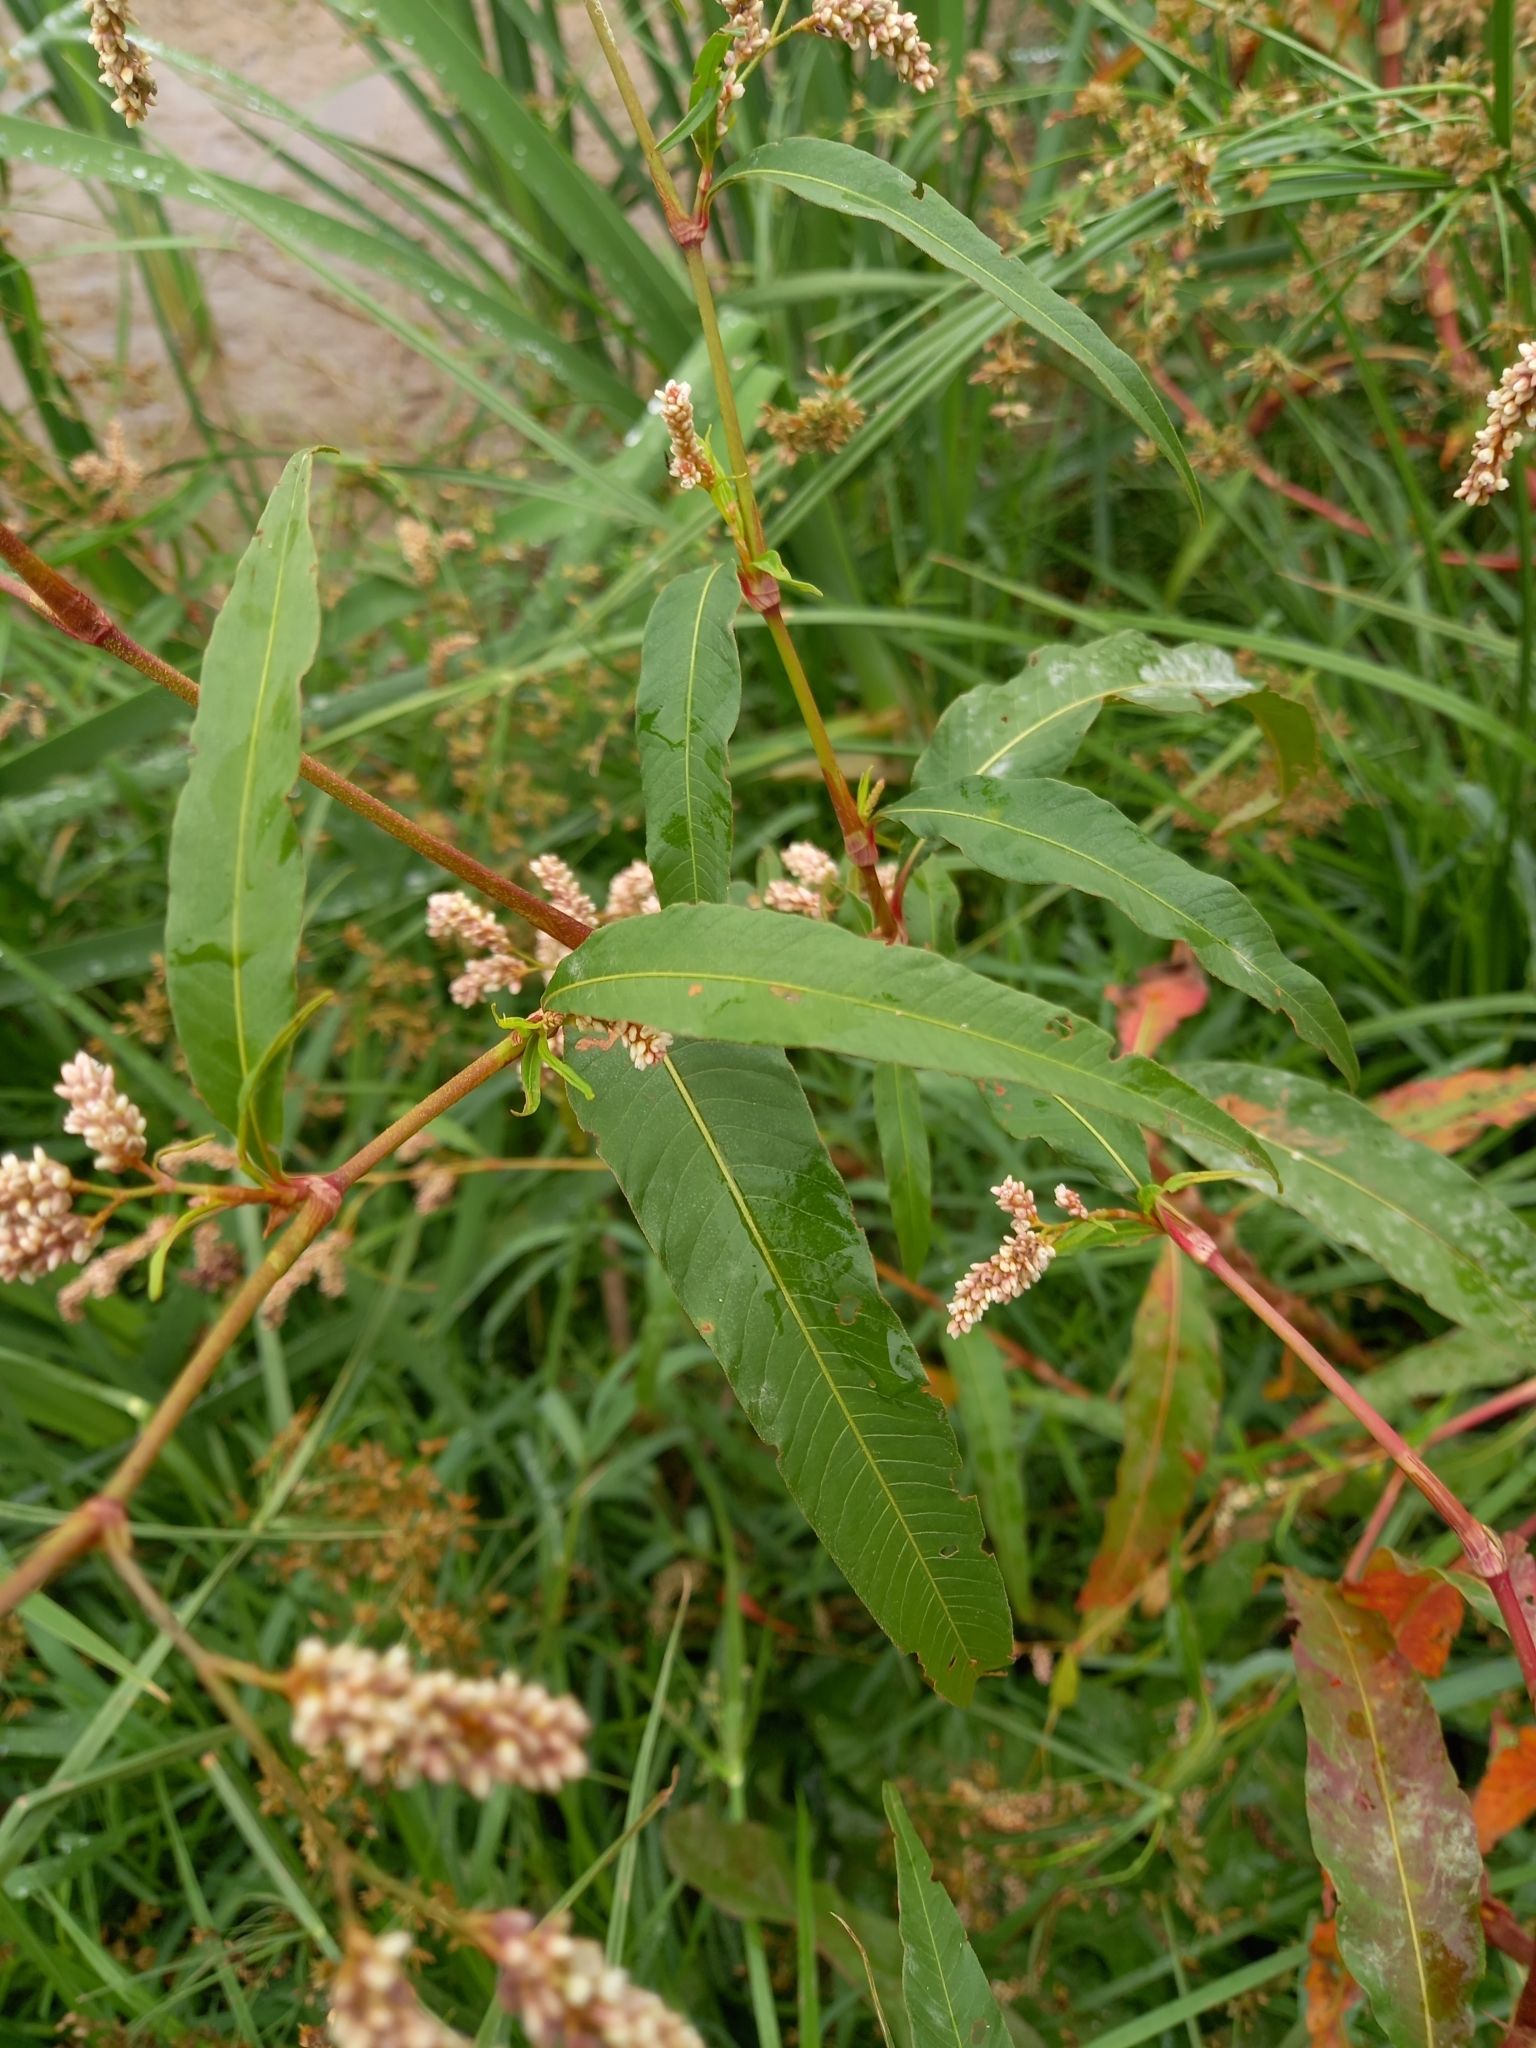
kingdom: Plantae
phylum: Tracheophyta
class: Magnoliopsida
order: Caryophyllales
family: Polygonaceae
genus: Persicaria
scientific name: Persicaria lapathifolia
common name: Curlytop knotweed
